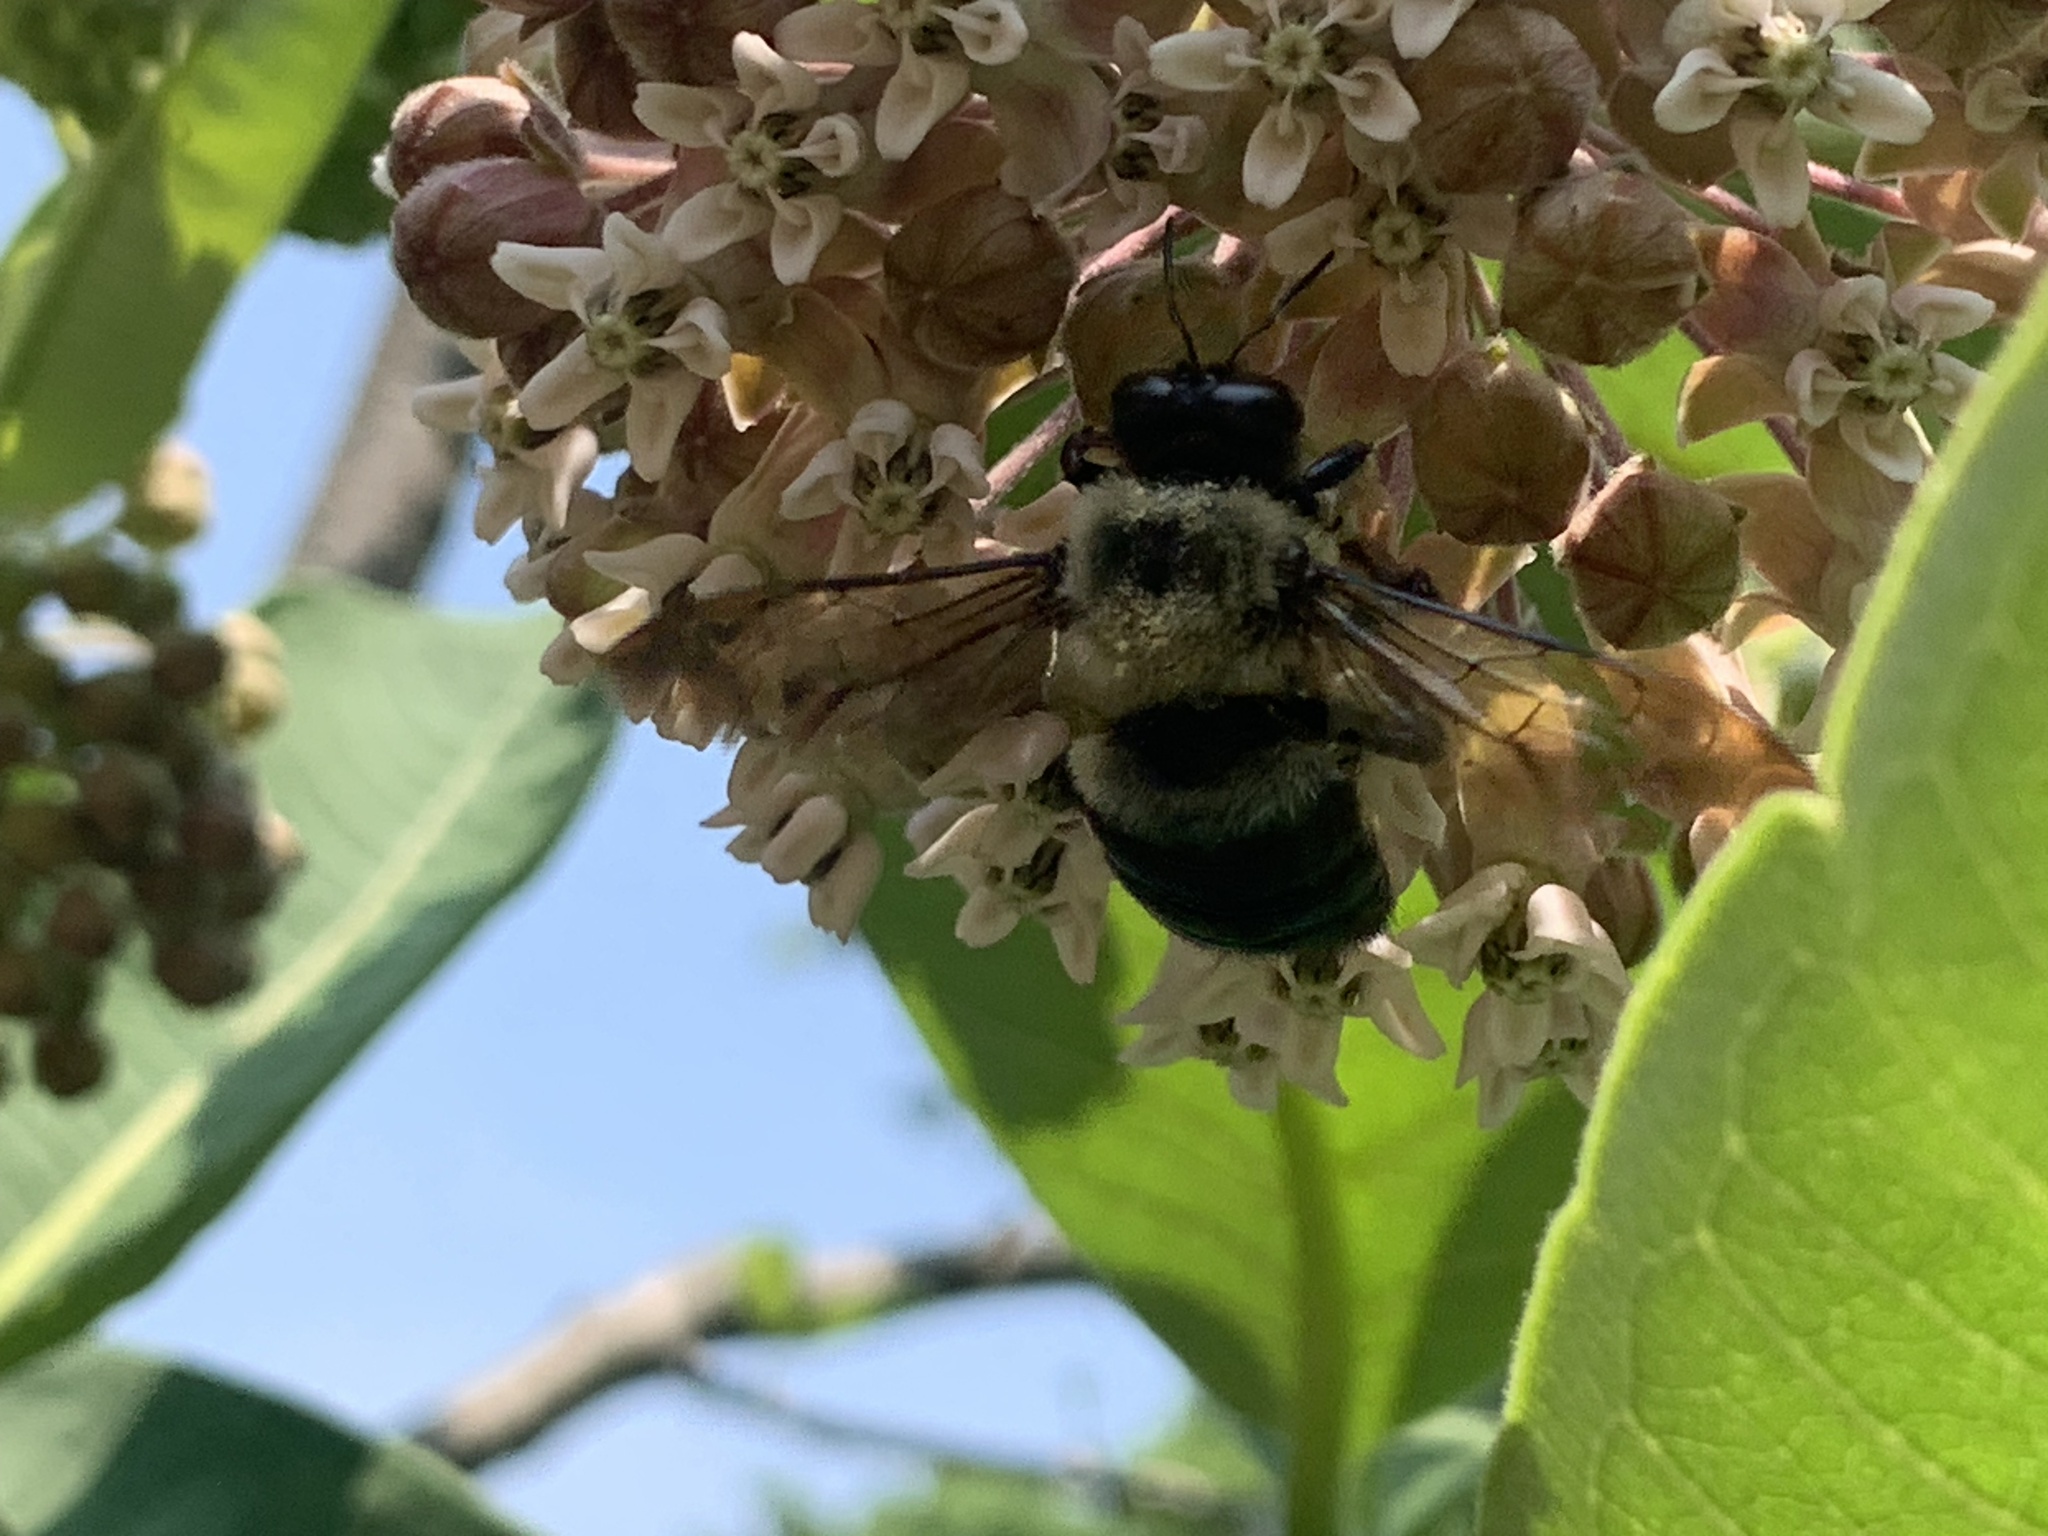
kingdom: Animalia
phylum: Arthropoda
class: Insecta
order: Hymenoptera
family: Apidae
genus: Xylocopa
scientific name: Xylocopa virginica
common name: Carpenter bee
